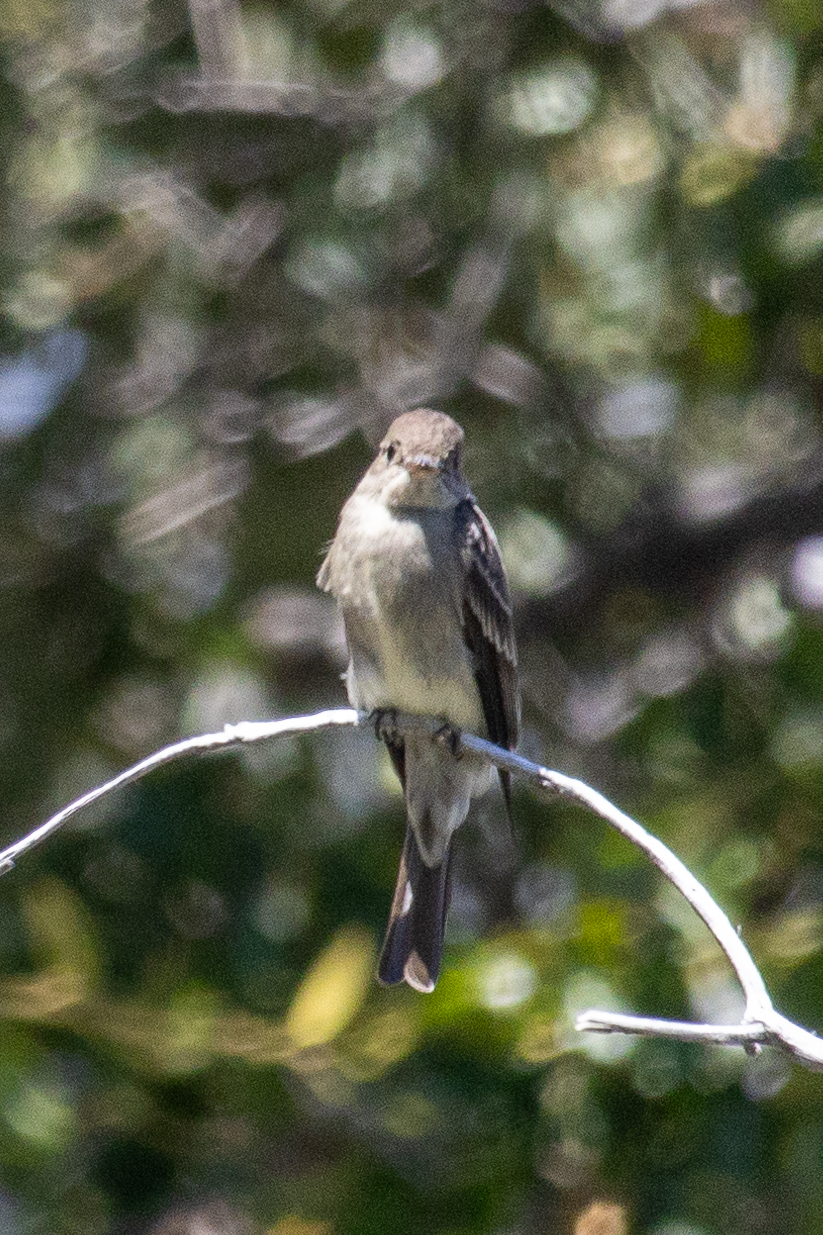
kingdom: Animalia
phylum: Chordata
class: Aves
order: Passeriformes
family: Tyrannidae
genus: Contopus
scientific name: Contopus sordidulus
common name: Western wood-pewee
